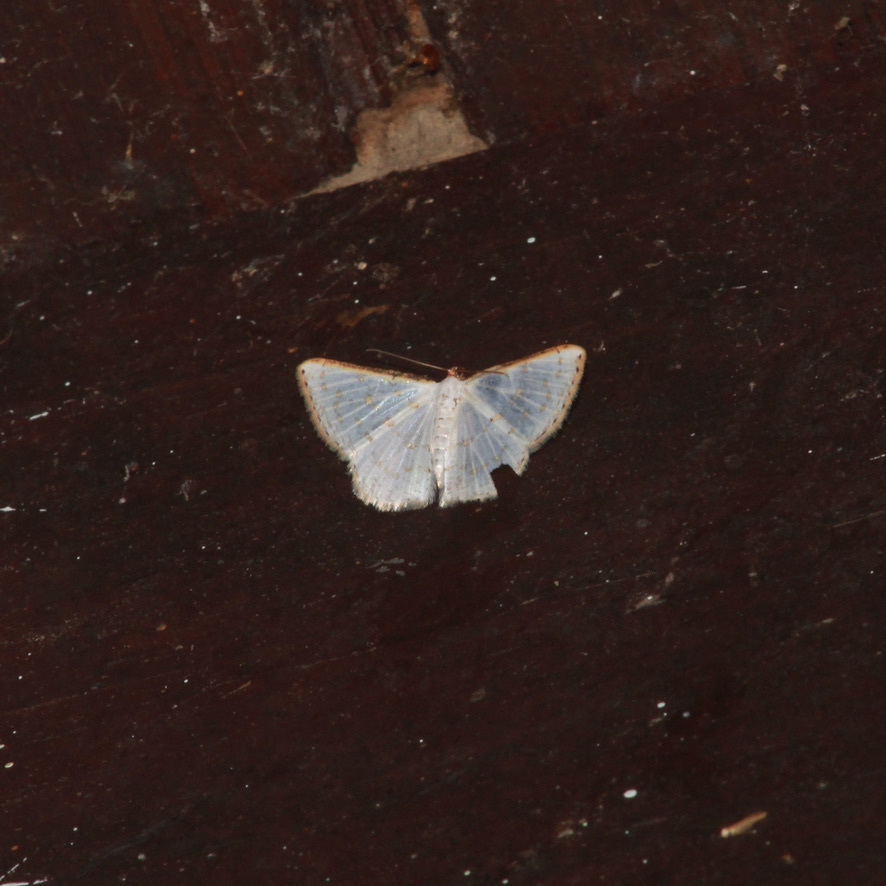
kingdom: Animalia
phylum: Arthropoda
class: Insecta
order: Lepidoptera
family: Geometridae
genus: Ballantiophora
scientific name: Ballantiophora gibbiferata
